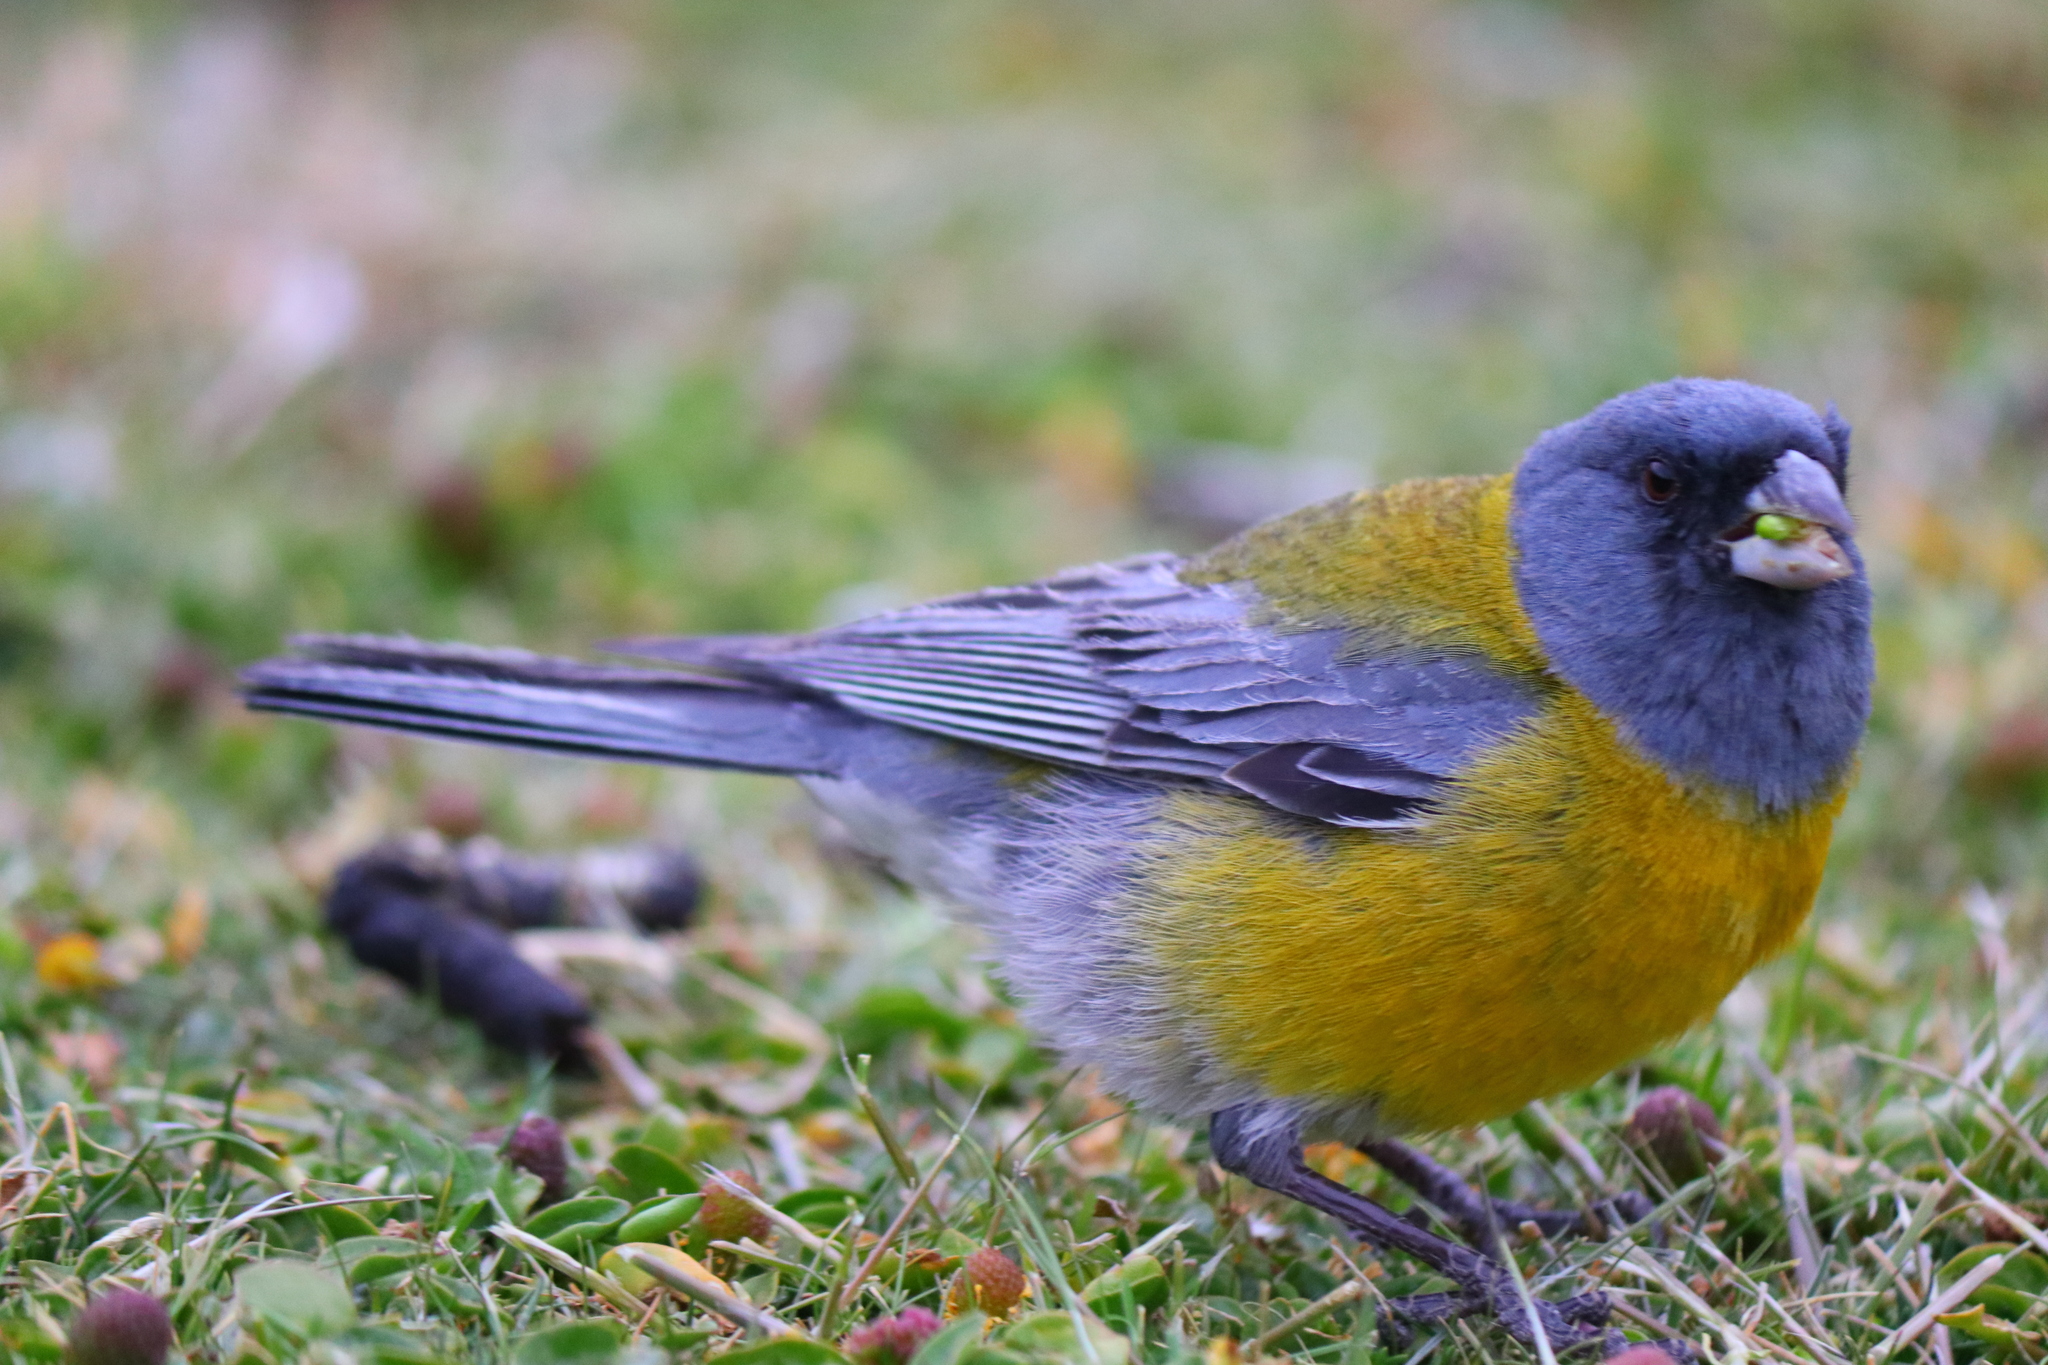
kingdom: Animalia
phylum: Chordata
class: Aves
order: Passeriformes
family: Thraupidae
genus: Phrygilus
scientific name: Phrygilus gayi
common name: Grey-hooded sierra finch
